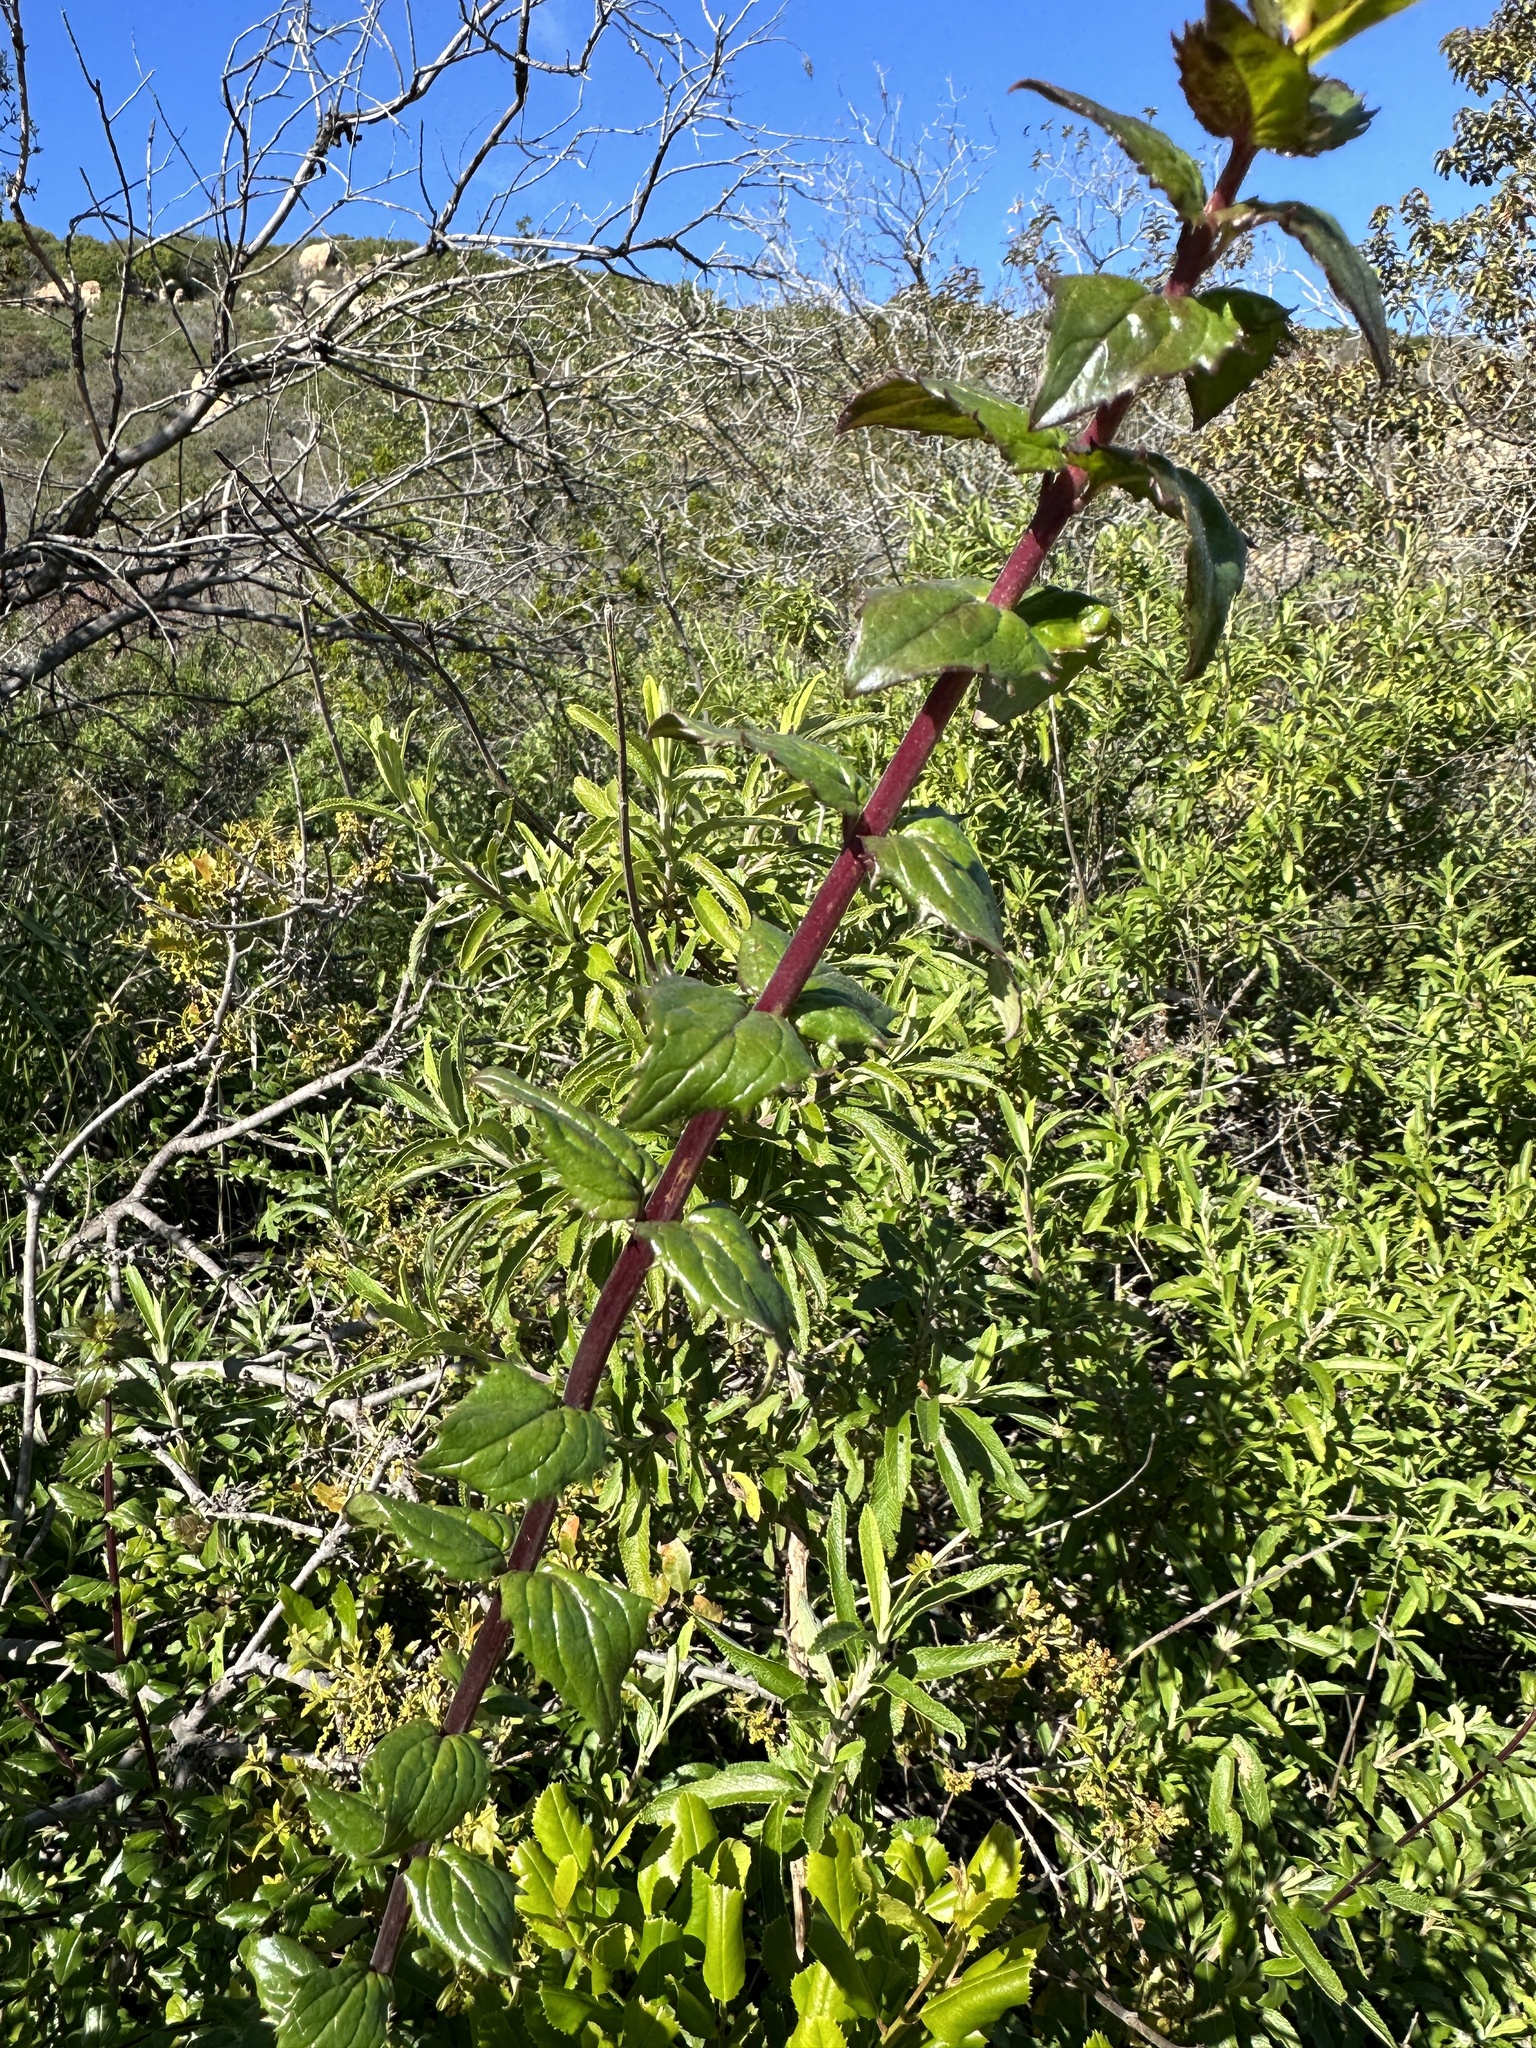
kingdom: Plantae
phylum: Tracheophyta
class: Magnoliopsida
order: Lamiales
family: Plantaginaceae
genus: Keckiella
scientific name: Keckiella cordifolia
